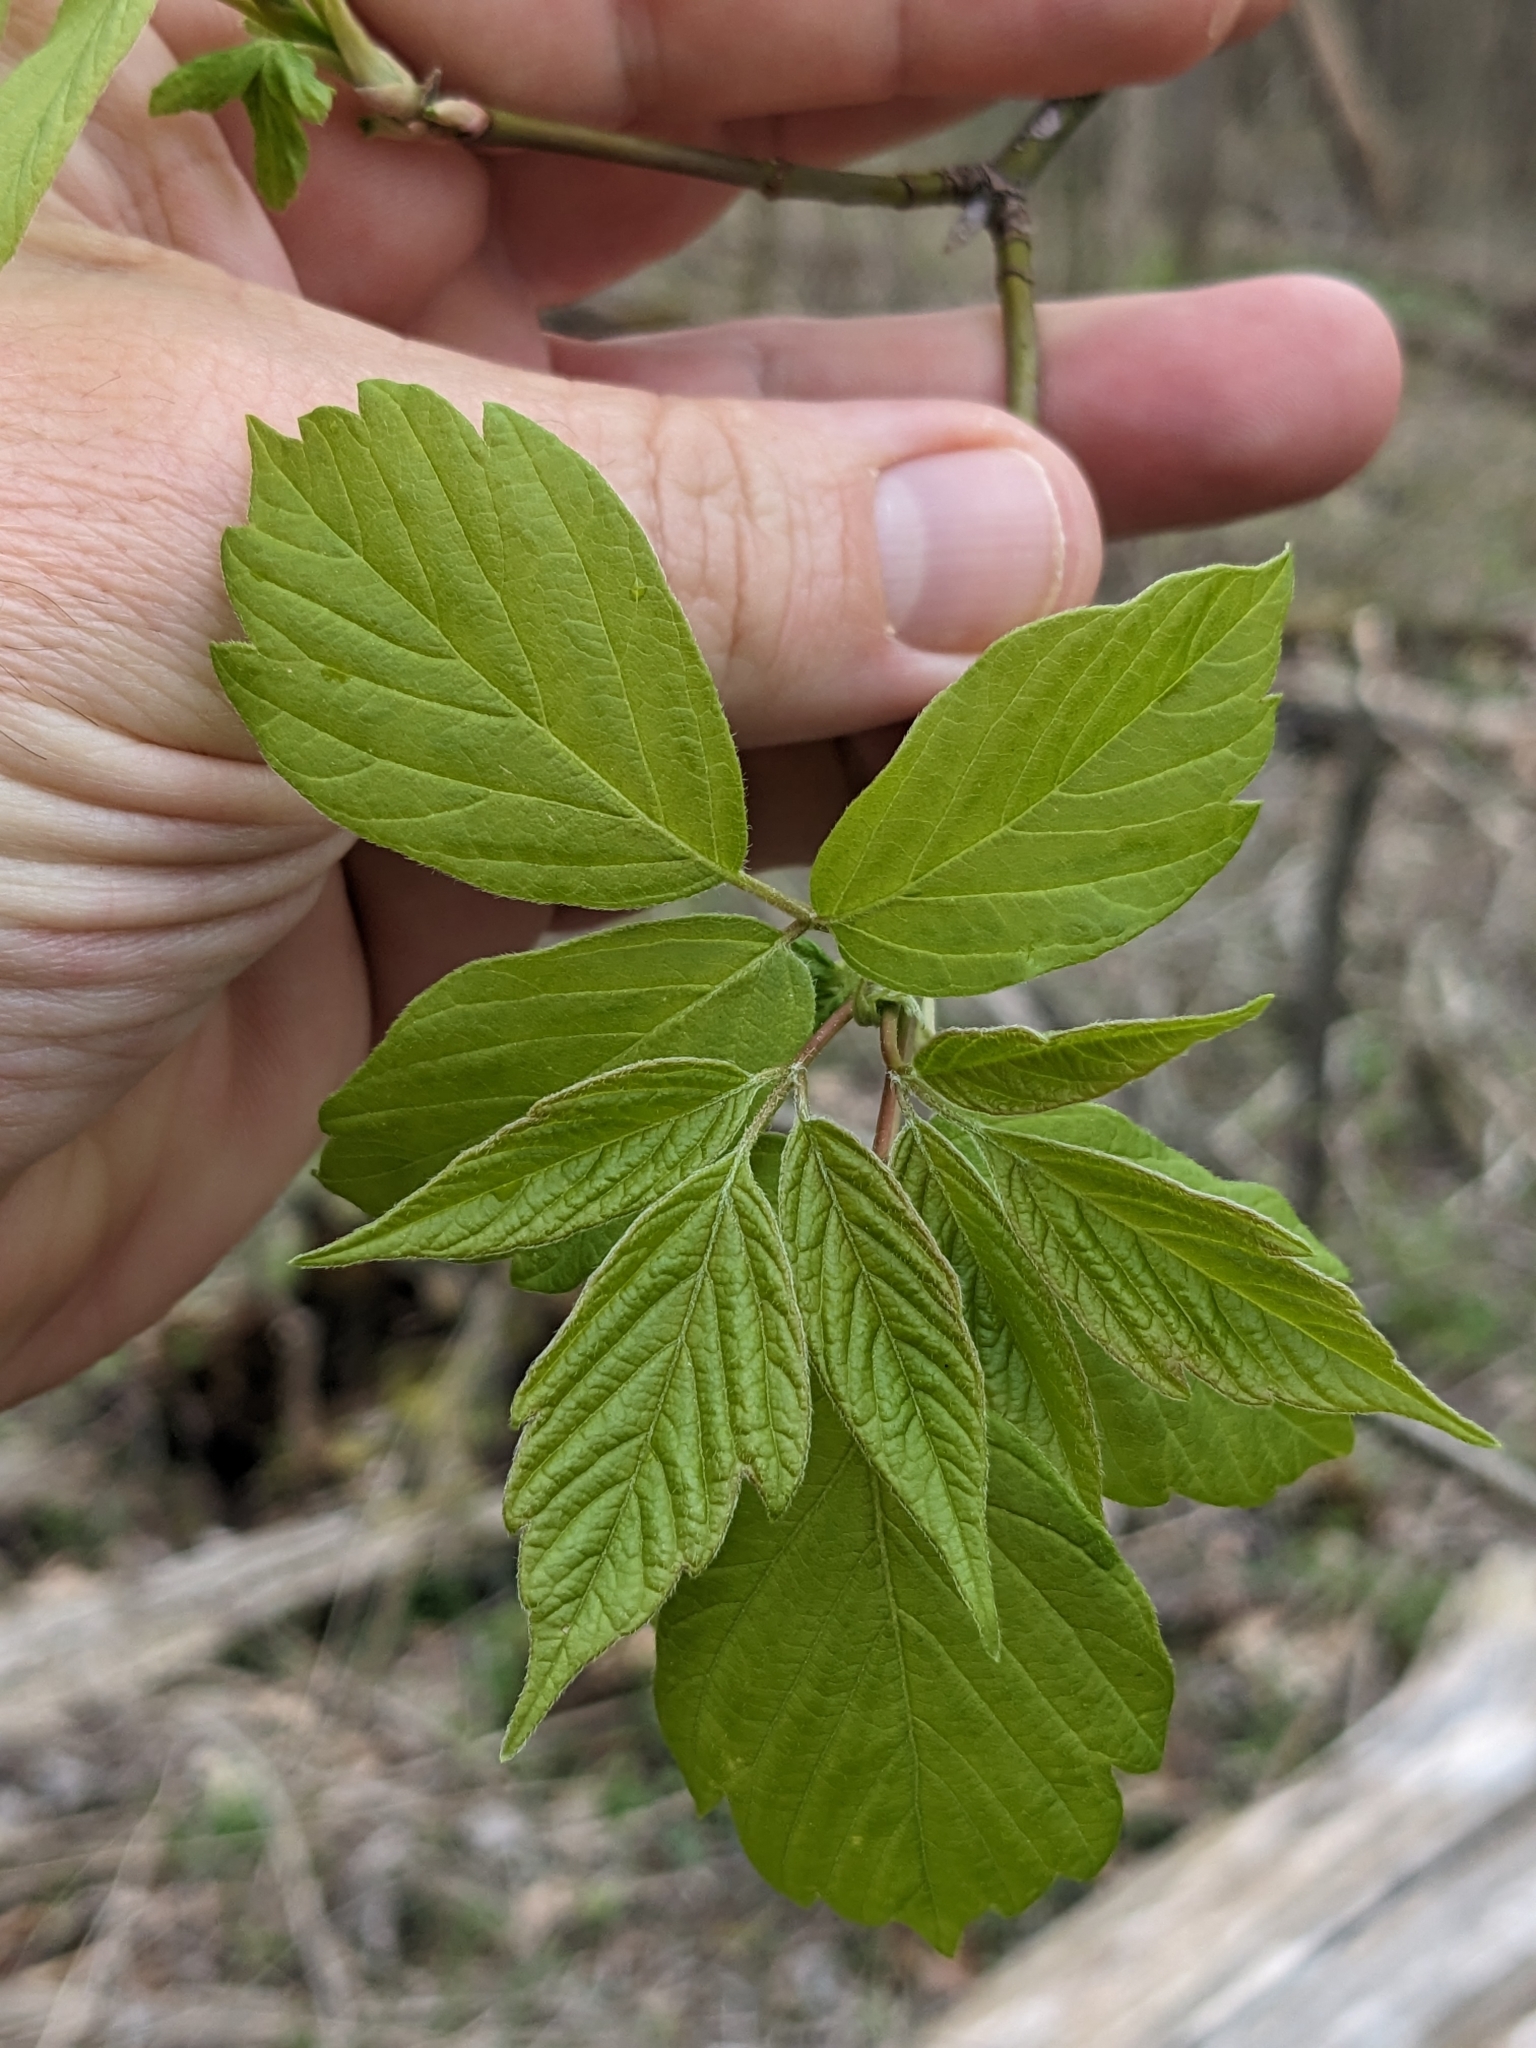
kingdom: Plantae
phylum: Tracheophyta
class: Magnoliopsida
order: Sapindales
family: Sapindaceae
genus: Acer
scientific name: Acer negundo
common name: Ashleaf maple
